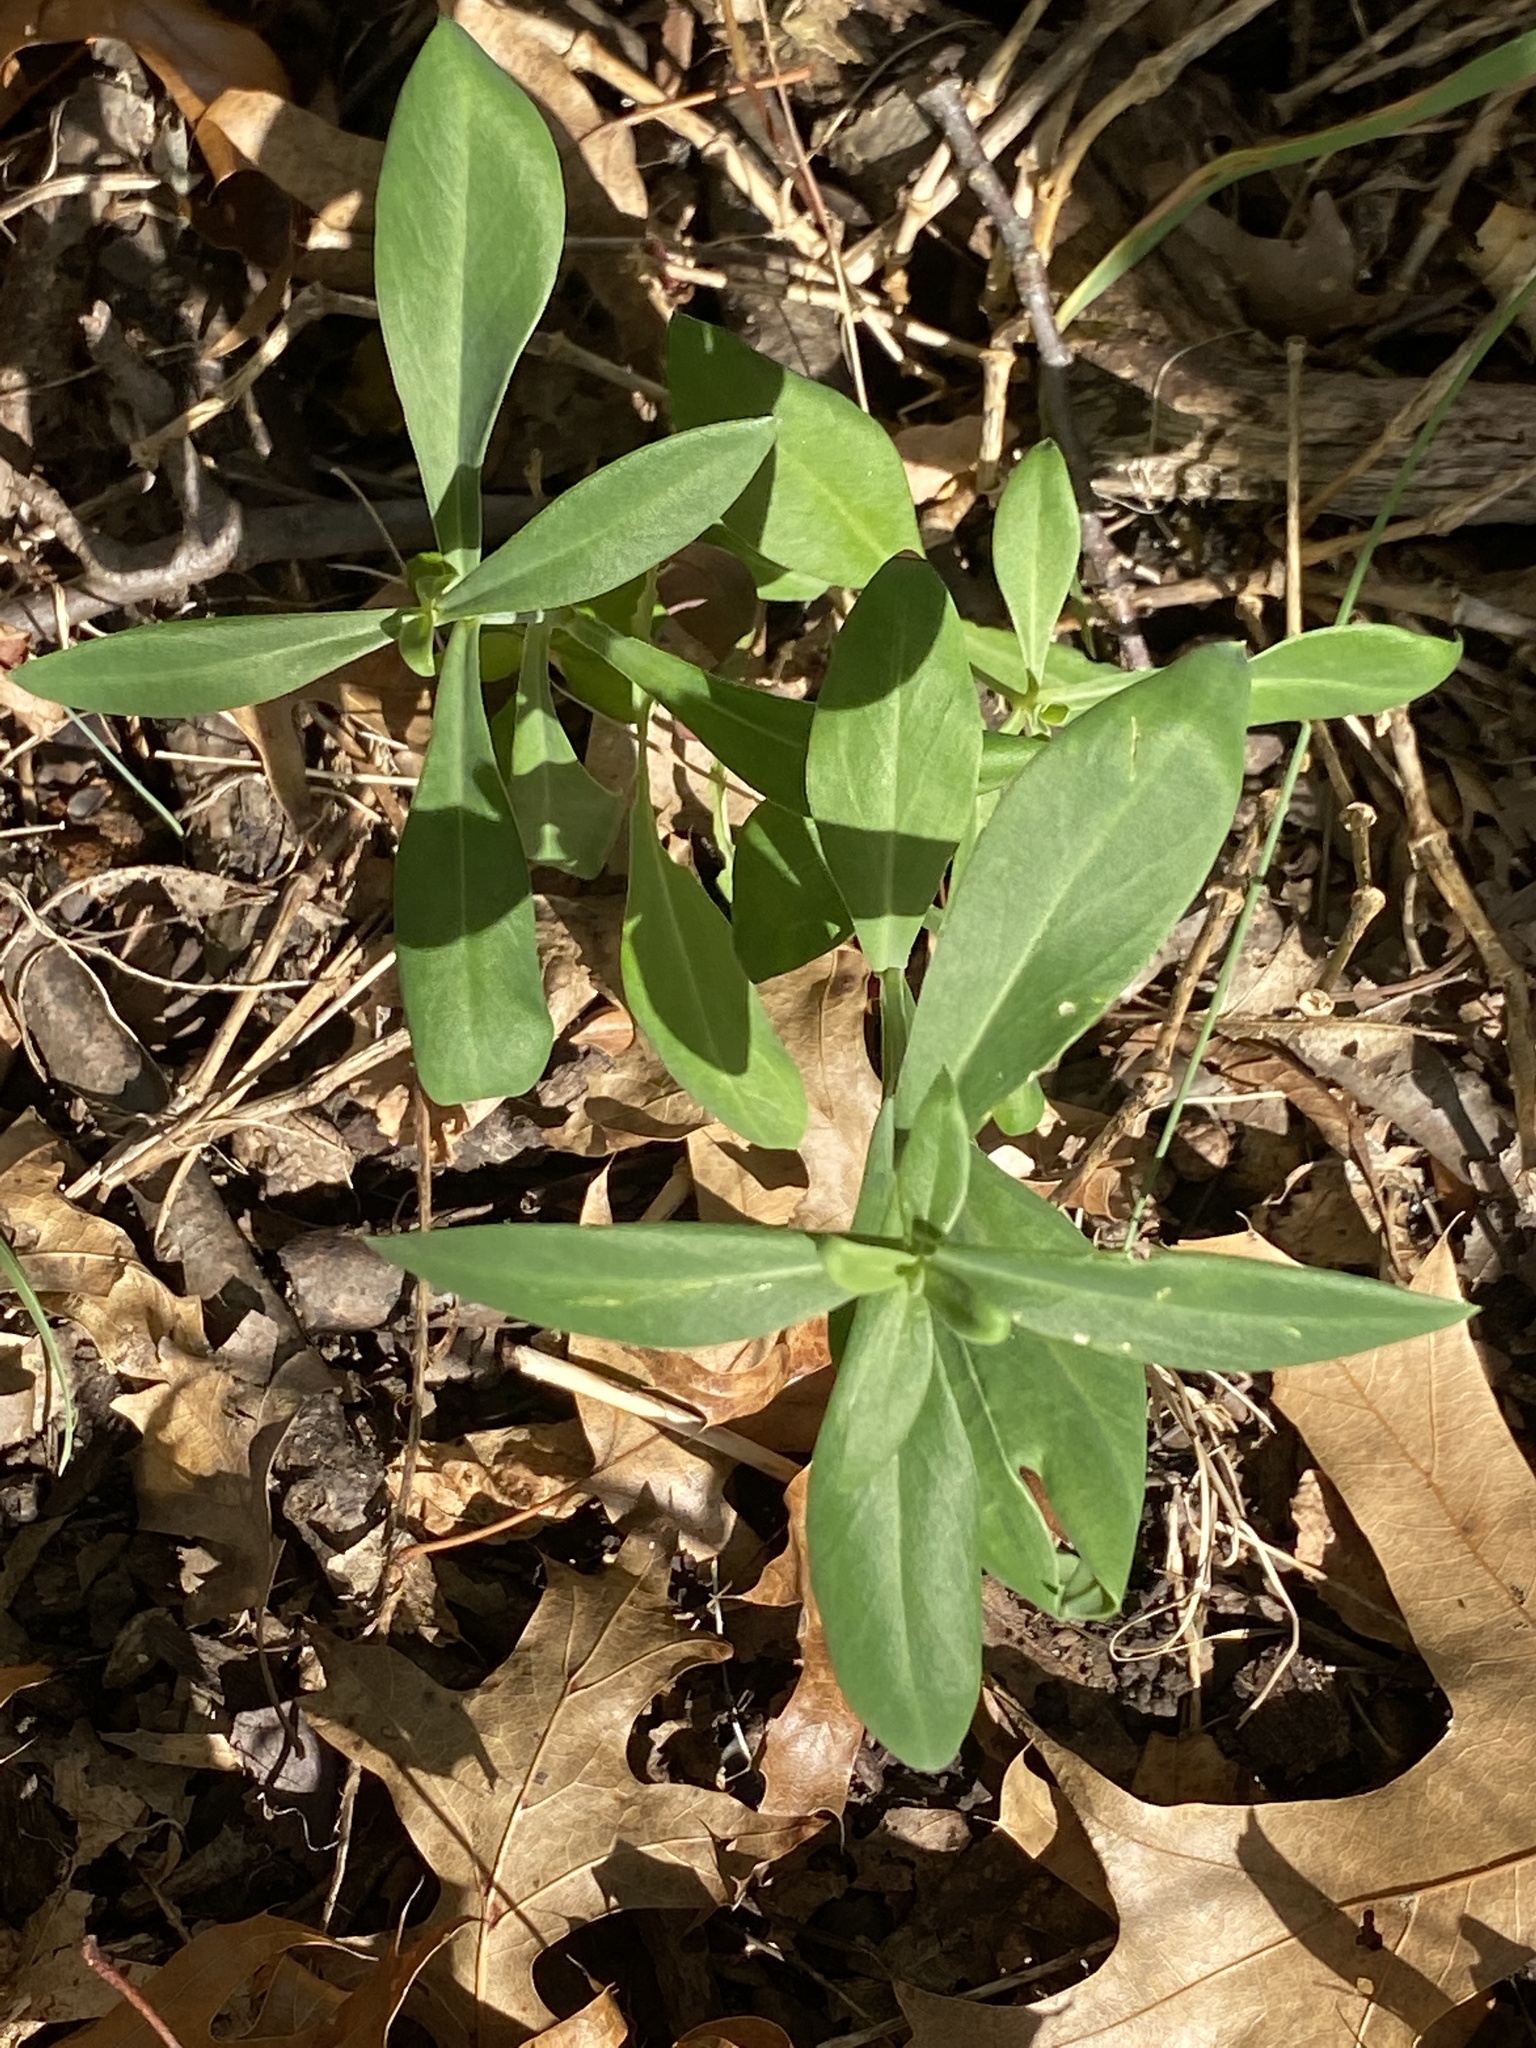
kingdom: Plantae
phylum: Tracheophyta
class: Magnoliopsida
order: Caryophyllales
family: Caryophyllaceae
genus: Silene
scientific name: Silene vulgaris
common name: Bladder campion
